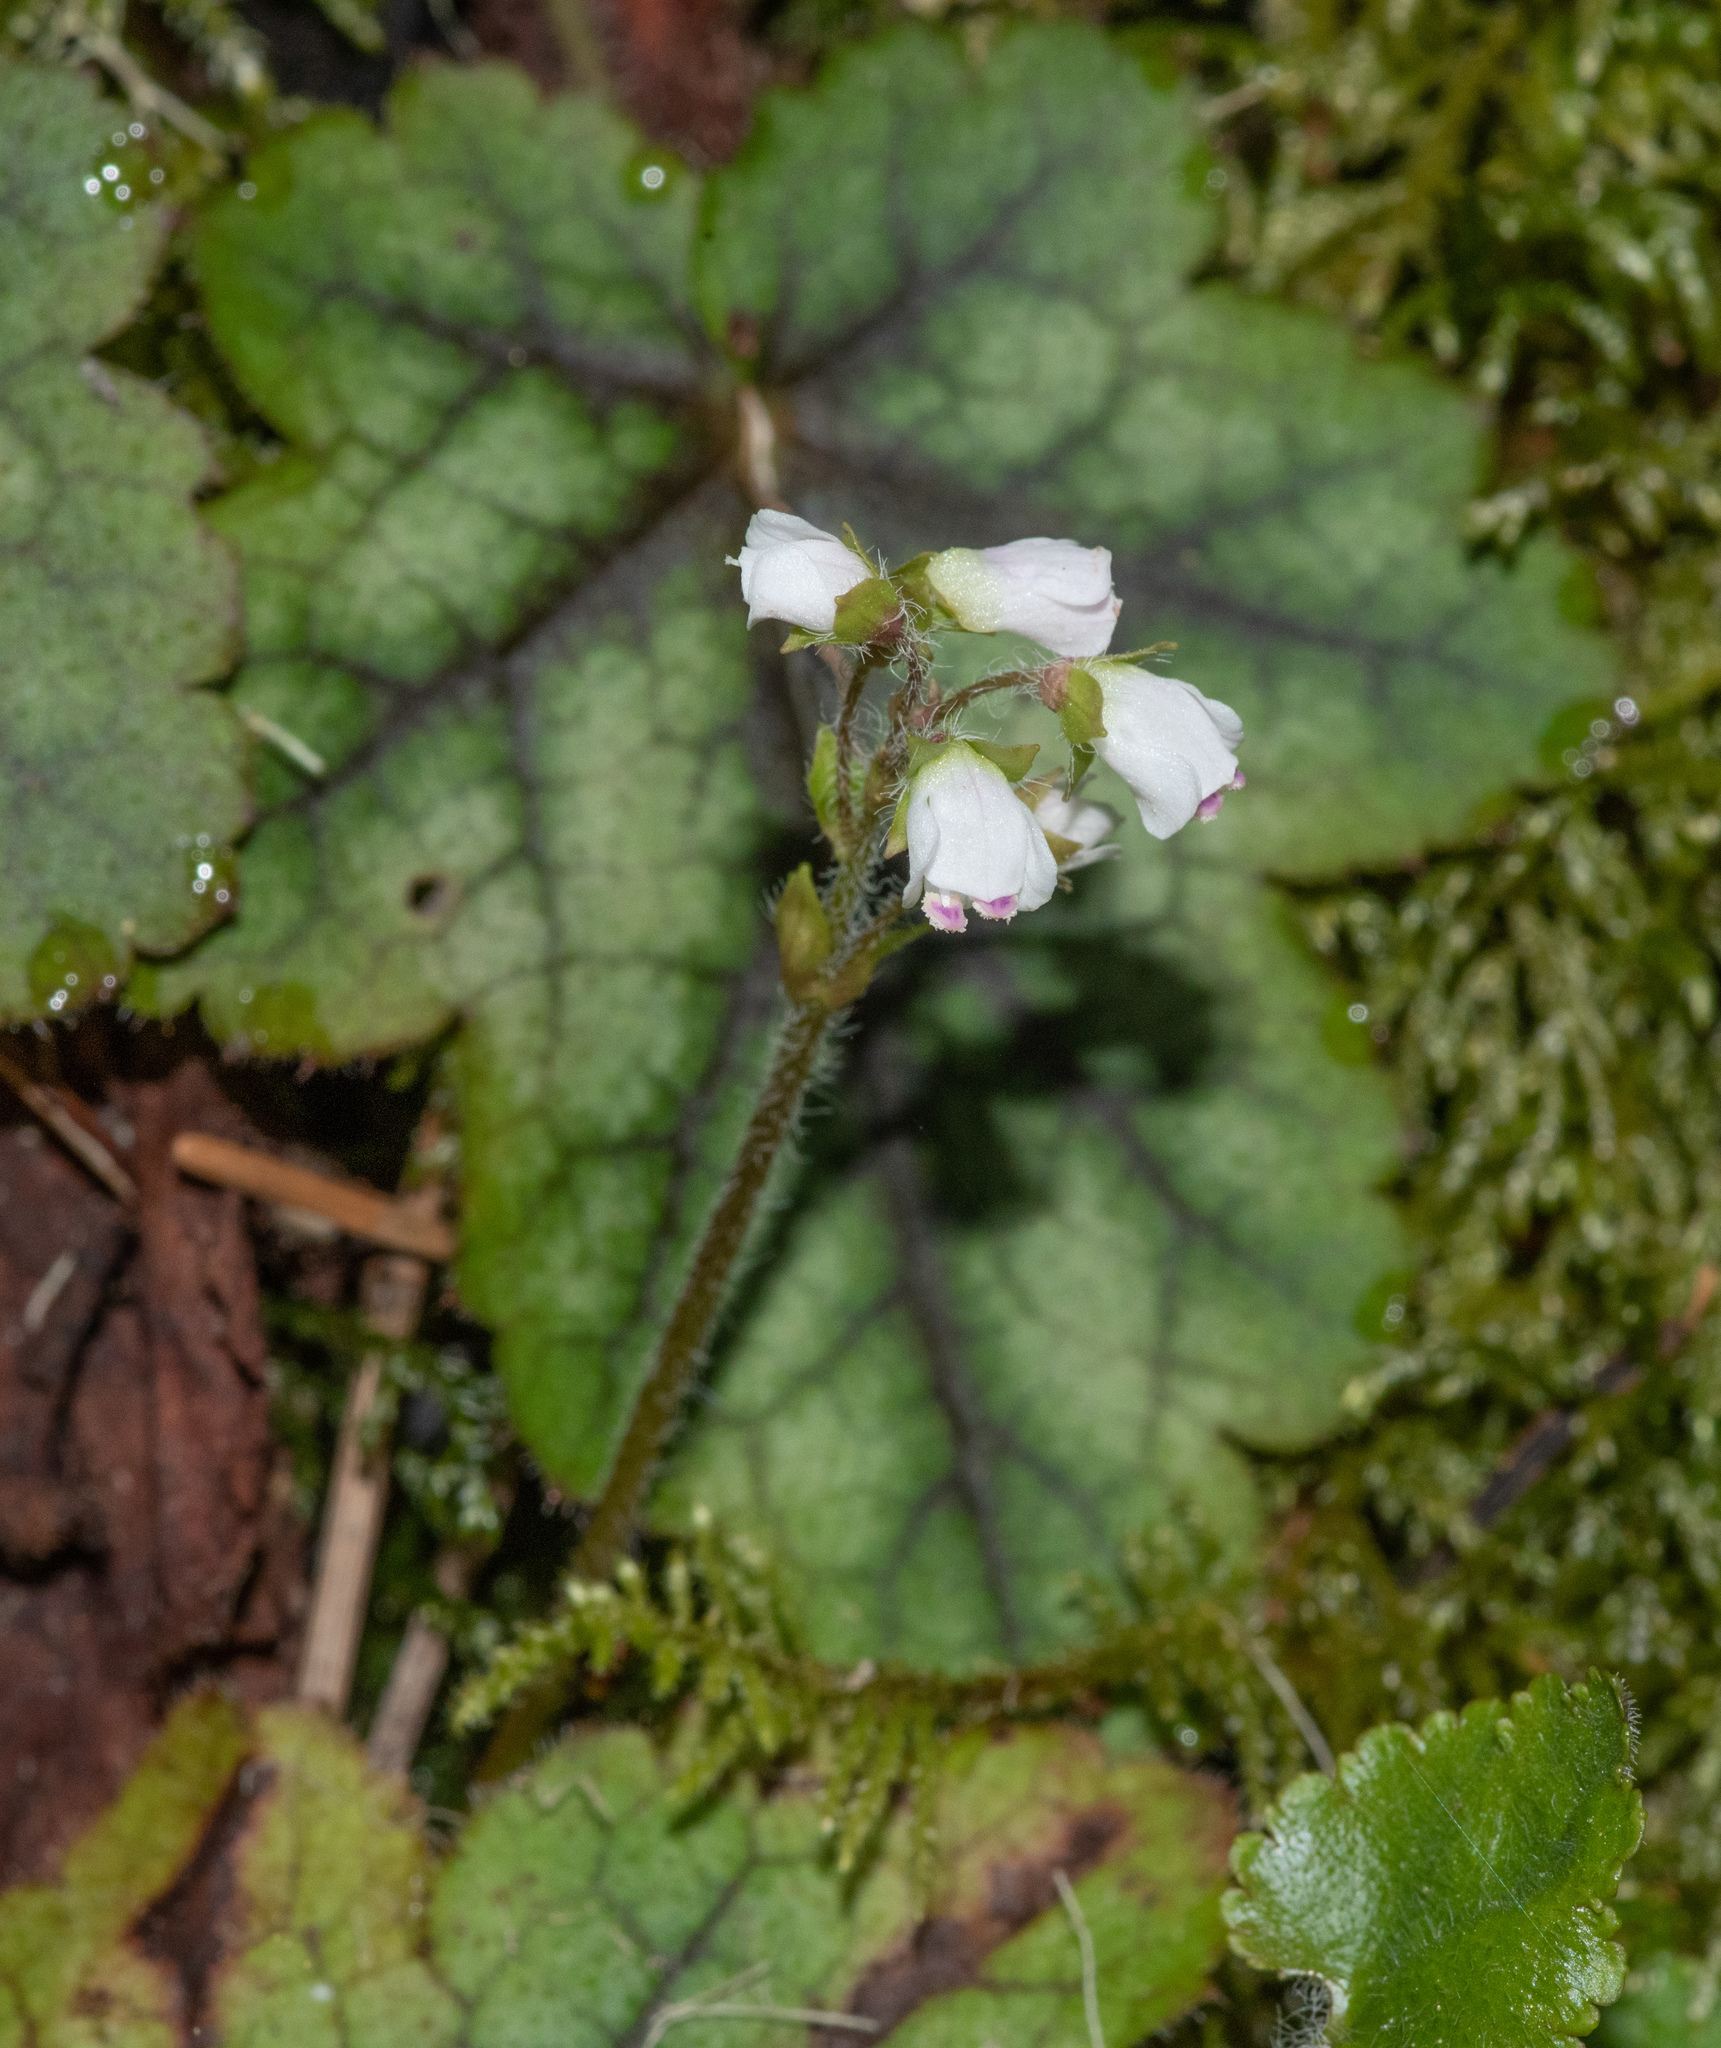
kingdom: Plantae
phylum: Tracheophyta
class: Magnoliopsida
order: Lamiales
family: Plantaginaceae
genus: Synthyris
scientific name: Synthyris cordata
